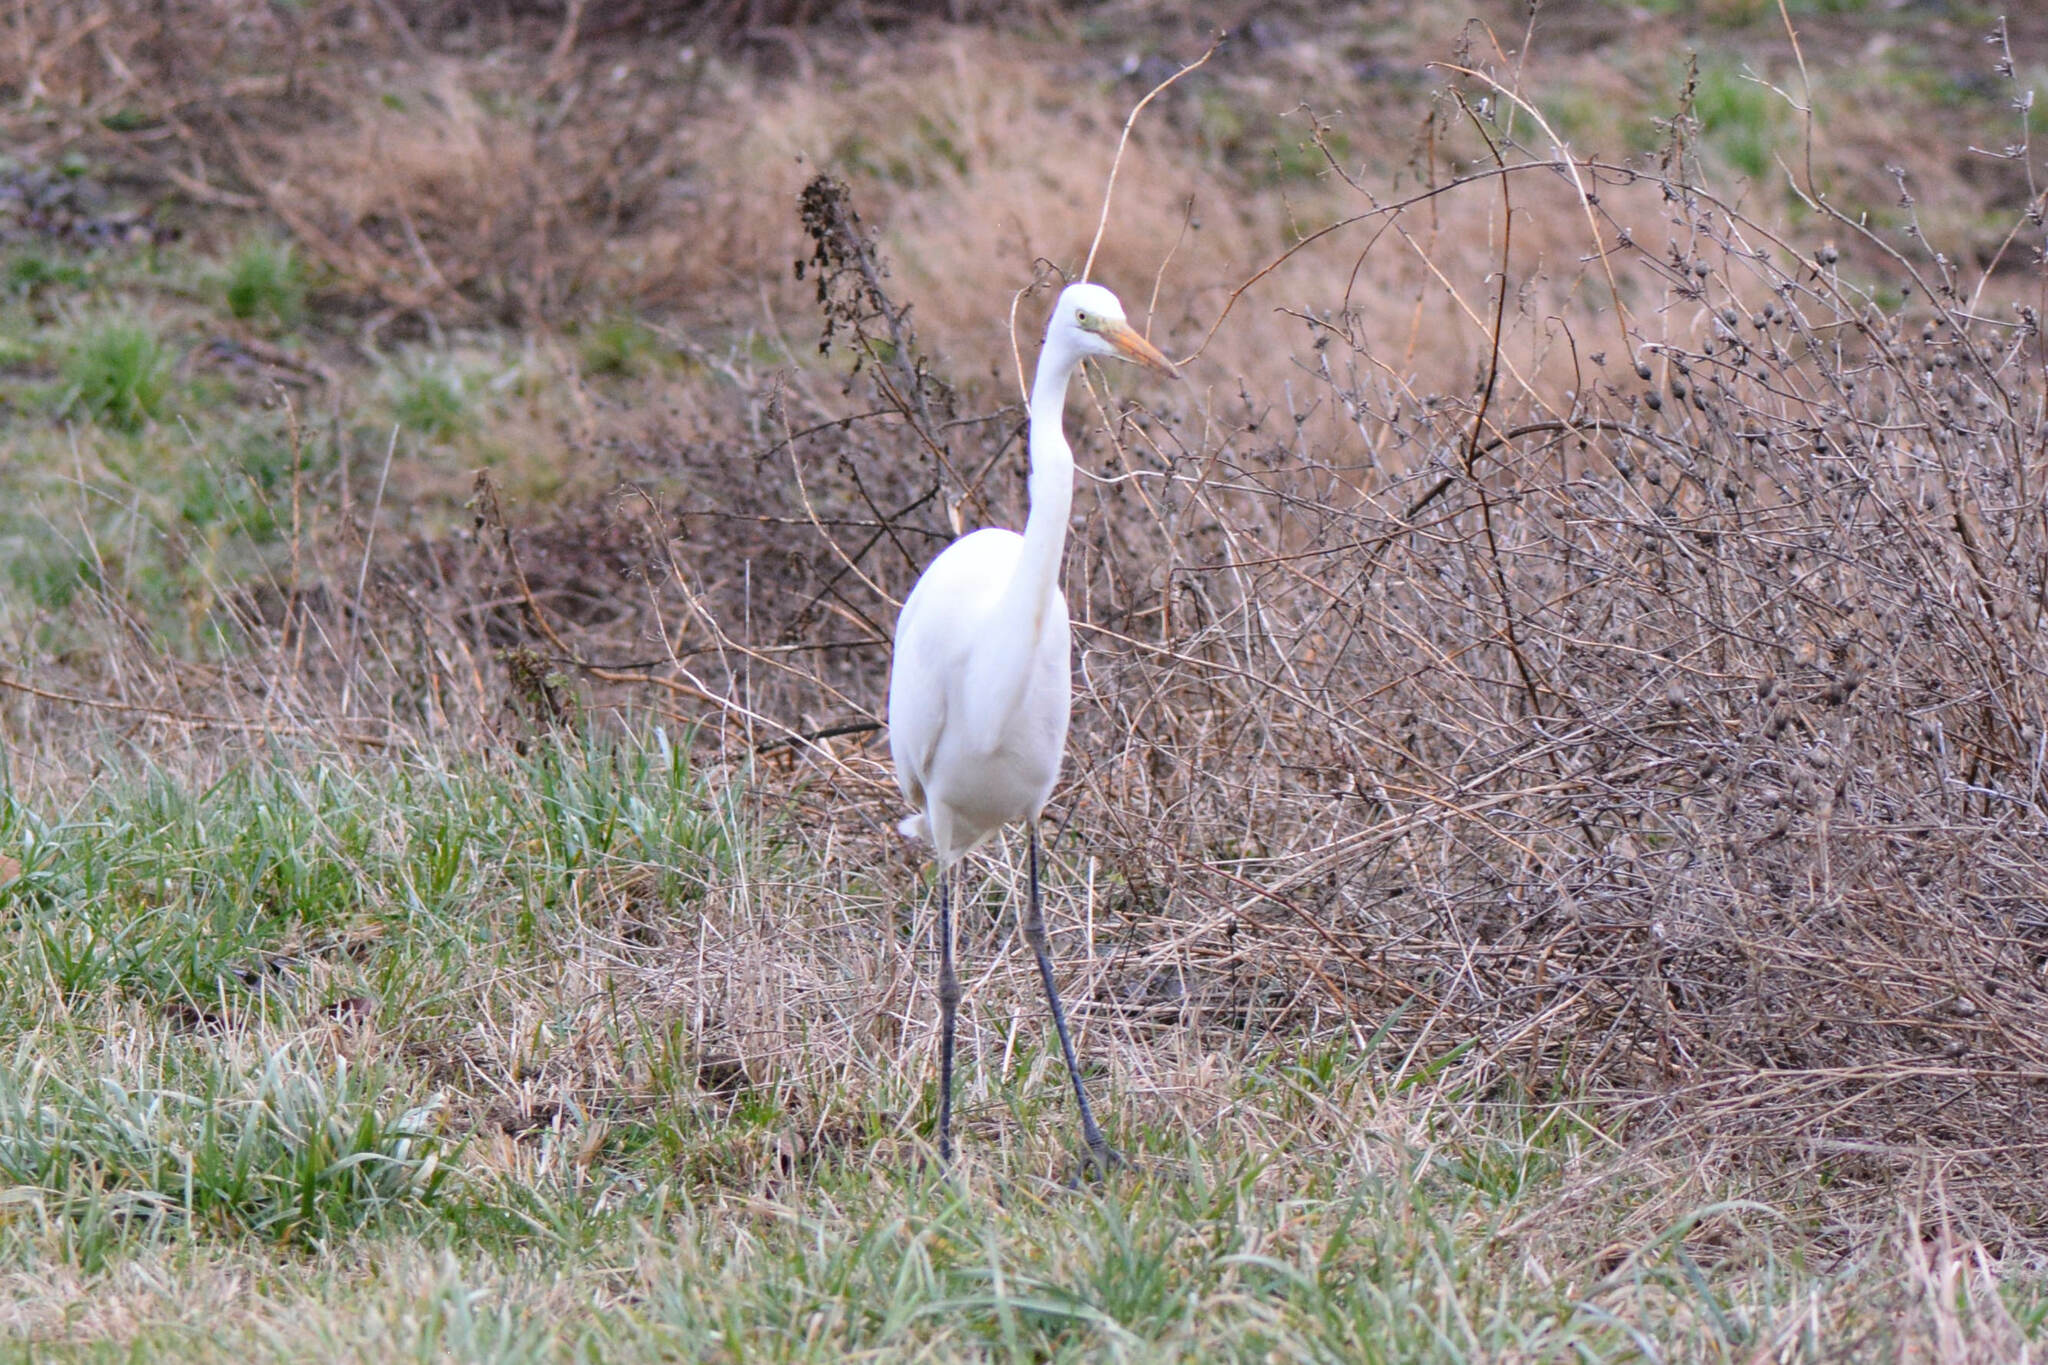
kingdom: Animalia
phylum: Chordata
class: Aves
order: Pelecaniformes
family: Ardeidae
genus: Ardea
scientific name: Ardea alba
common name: Great egret
